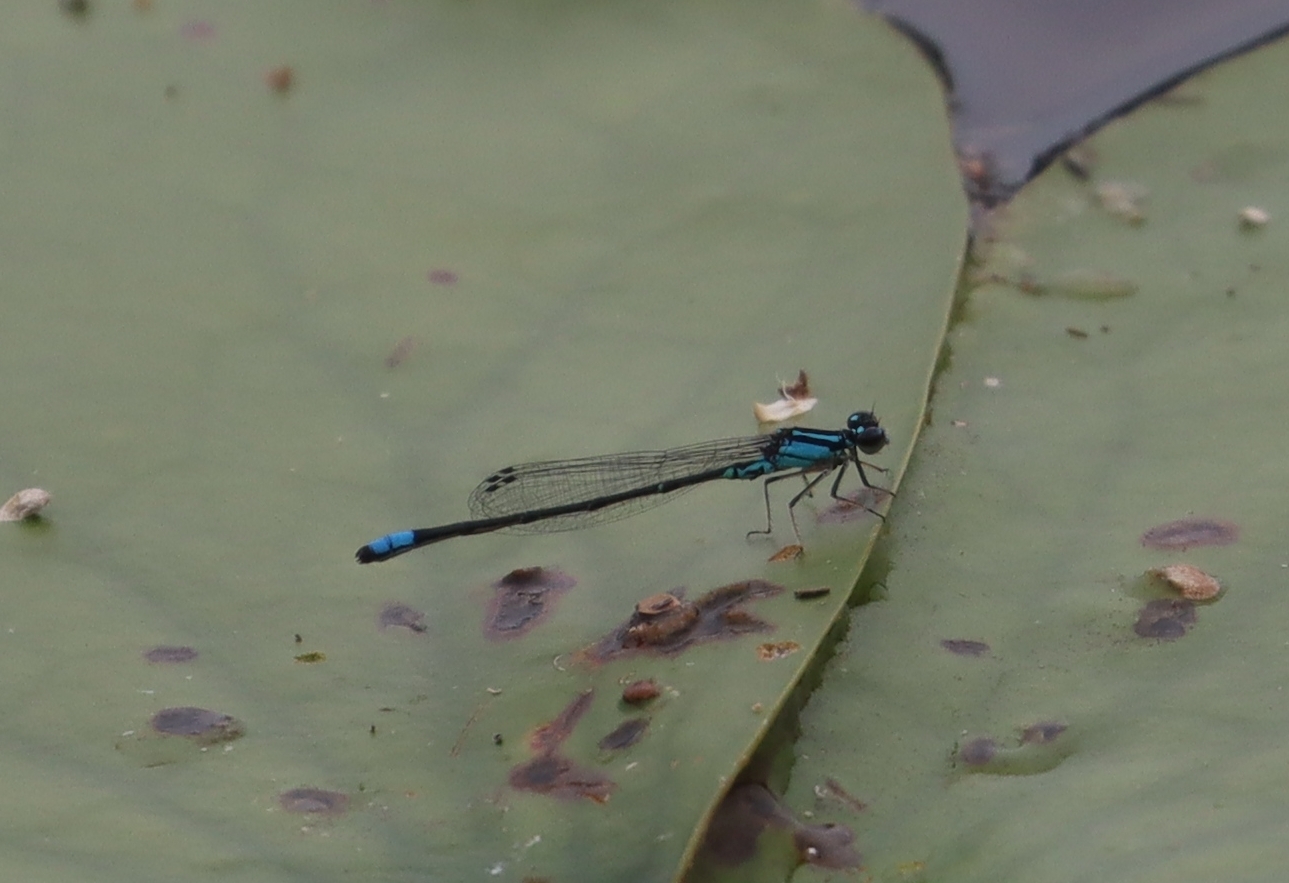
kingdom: Animalia
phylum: Arthropoda
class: Insecta
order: Odonata
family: Coenagrionidae
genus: Enallagma
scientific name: Enallagma geminatum
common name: Skimming bluet
